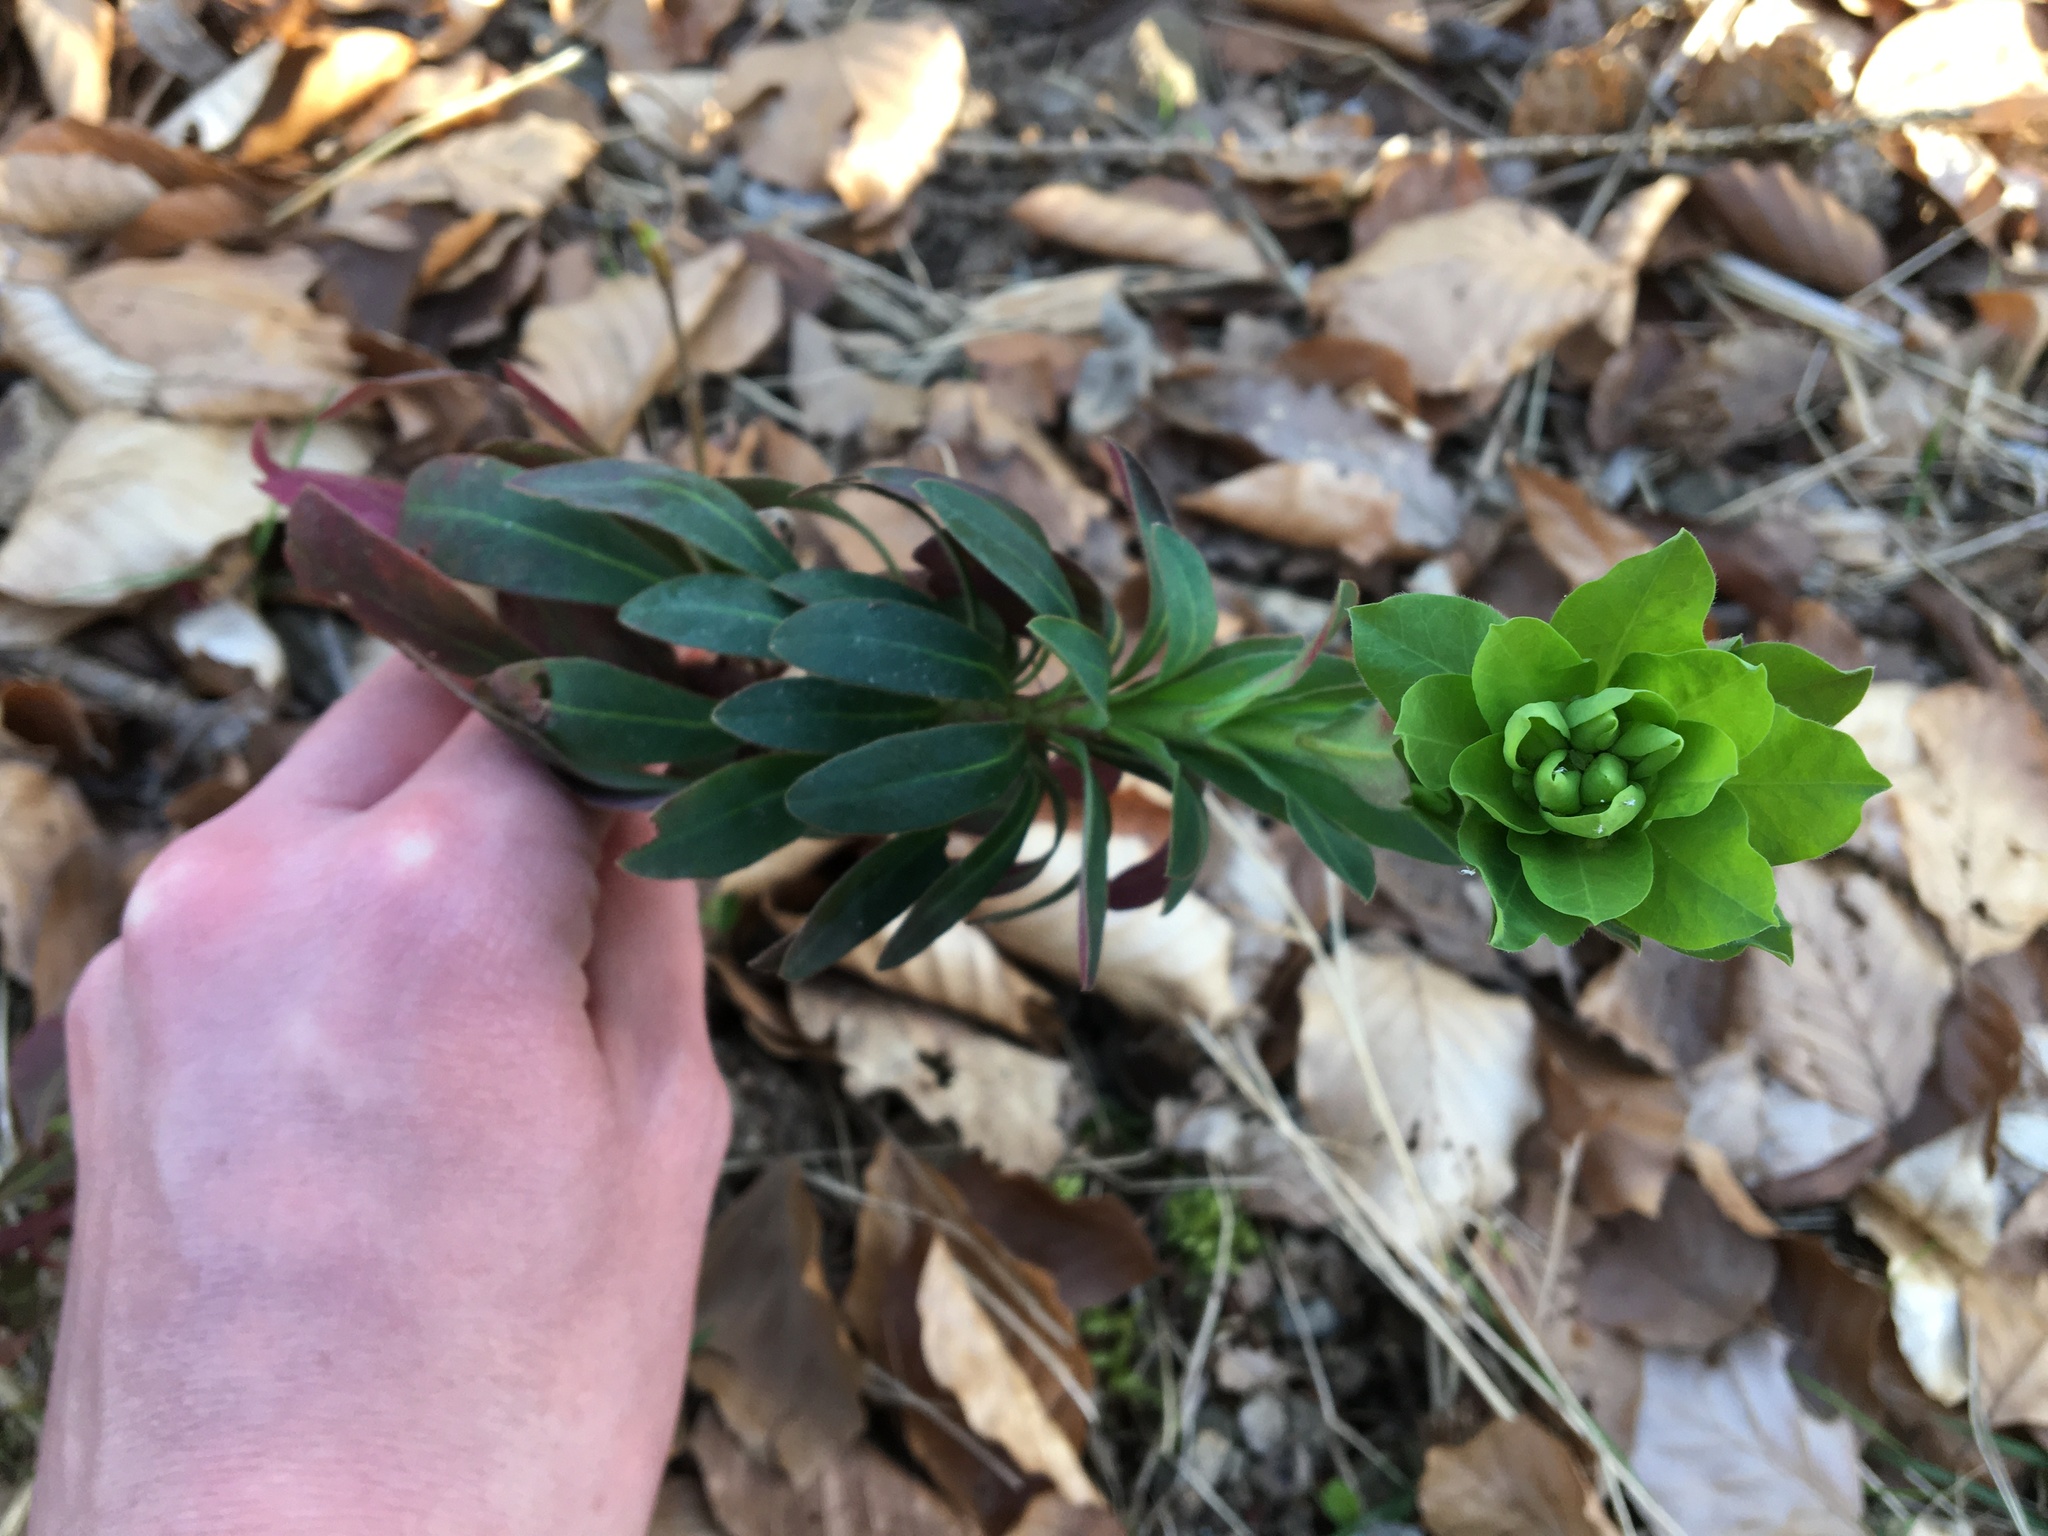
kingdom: Plantae
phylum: Tracheophyta
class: Magnoliopsida
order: Malpighiales
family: Euphorbiaceae
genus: Euphorbia
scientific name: Euphorbia amygdaloides
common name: Wood spurge
